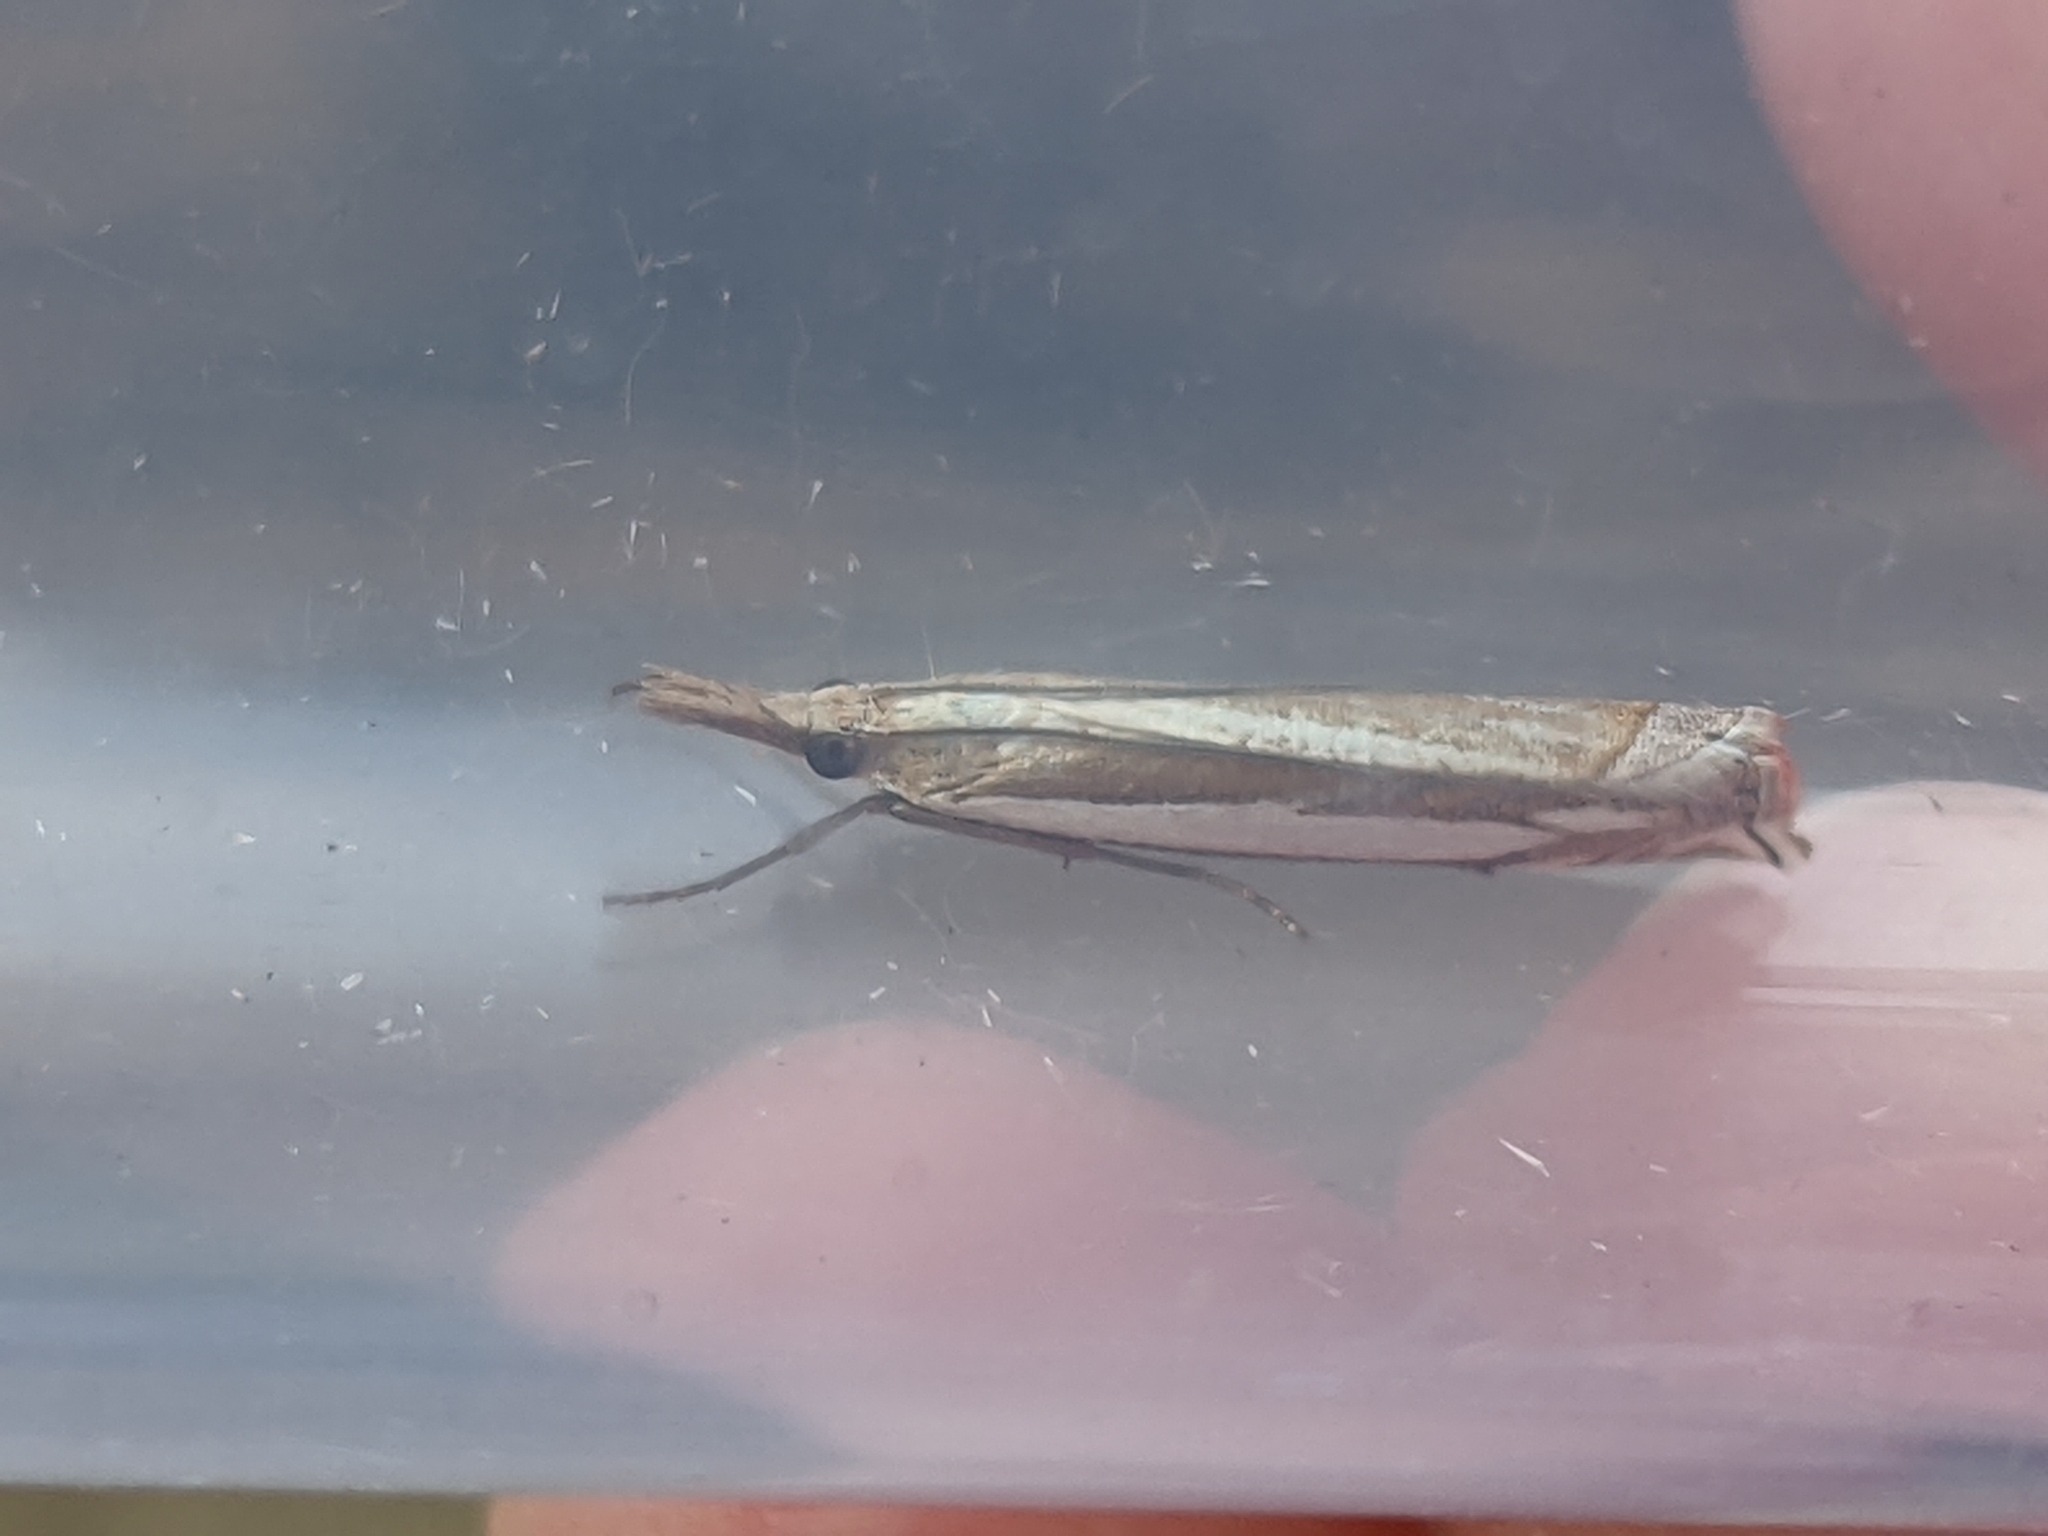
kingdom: Animalia
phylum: Arthropoda
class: Insecta
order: Lepidoptera
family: Crambidae
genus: Crambus
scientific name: Crambus pascuella
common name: Inlaid grass-veneer
